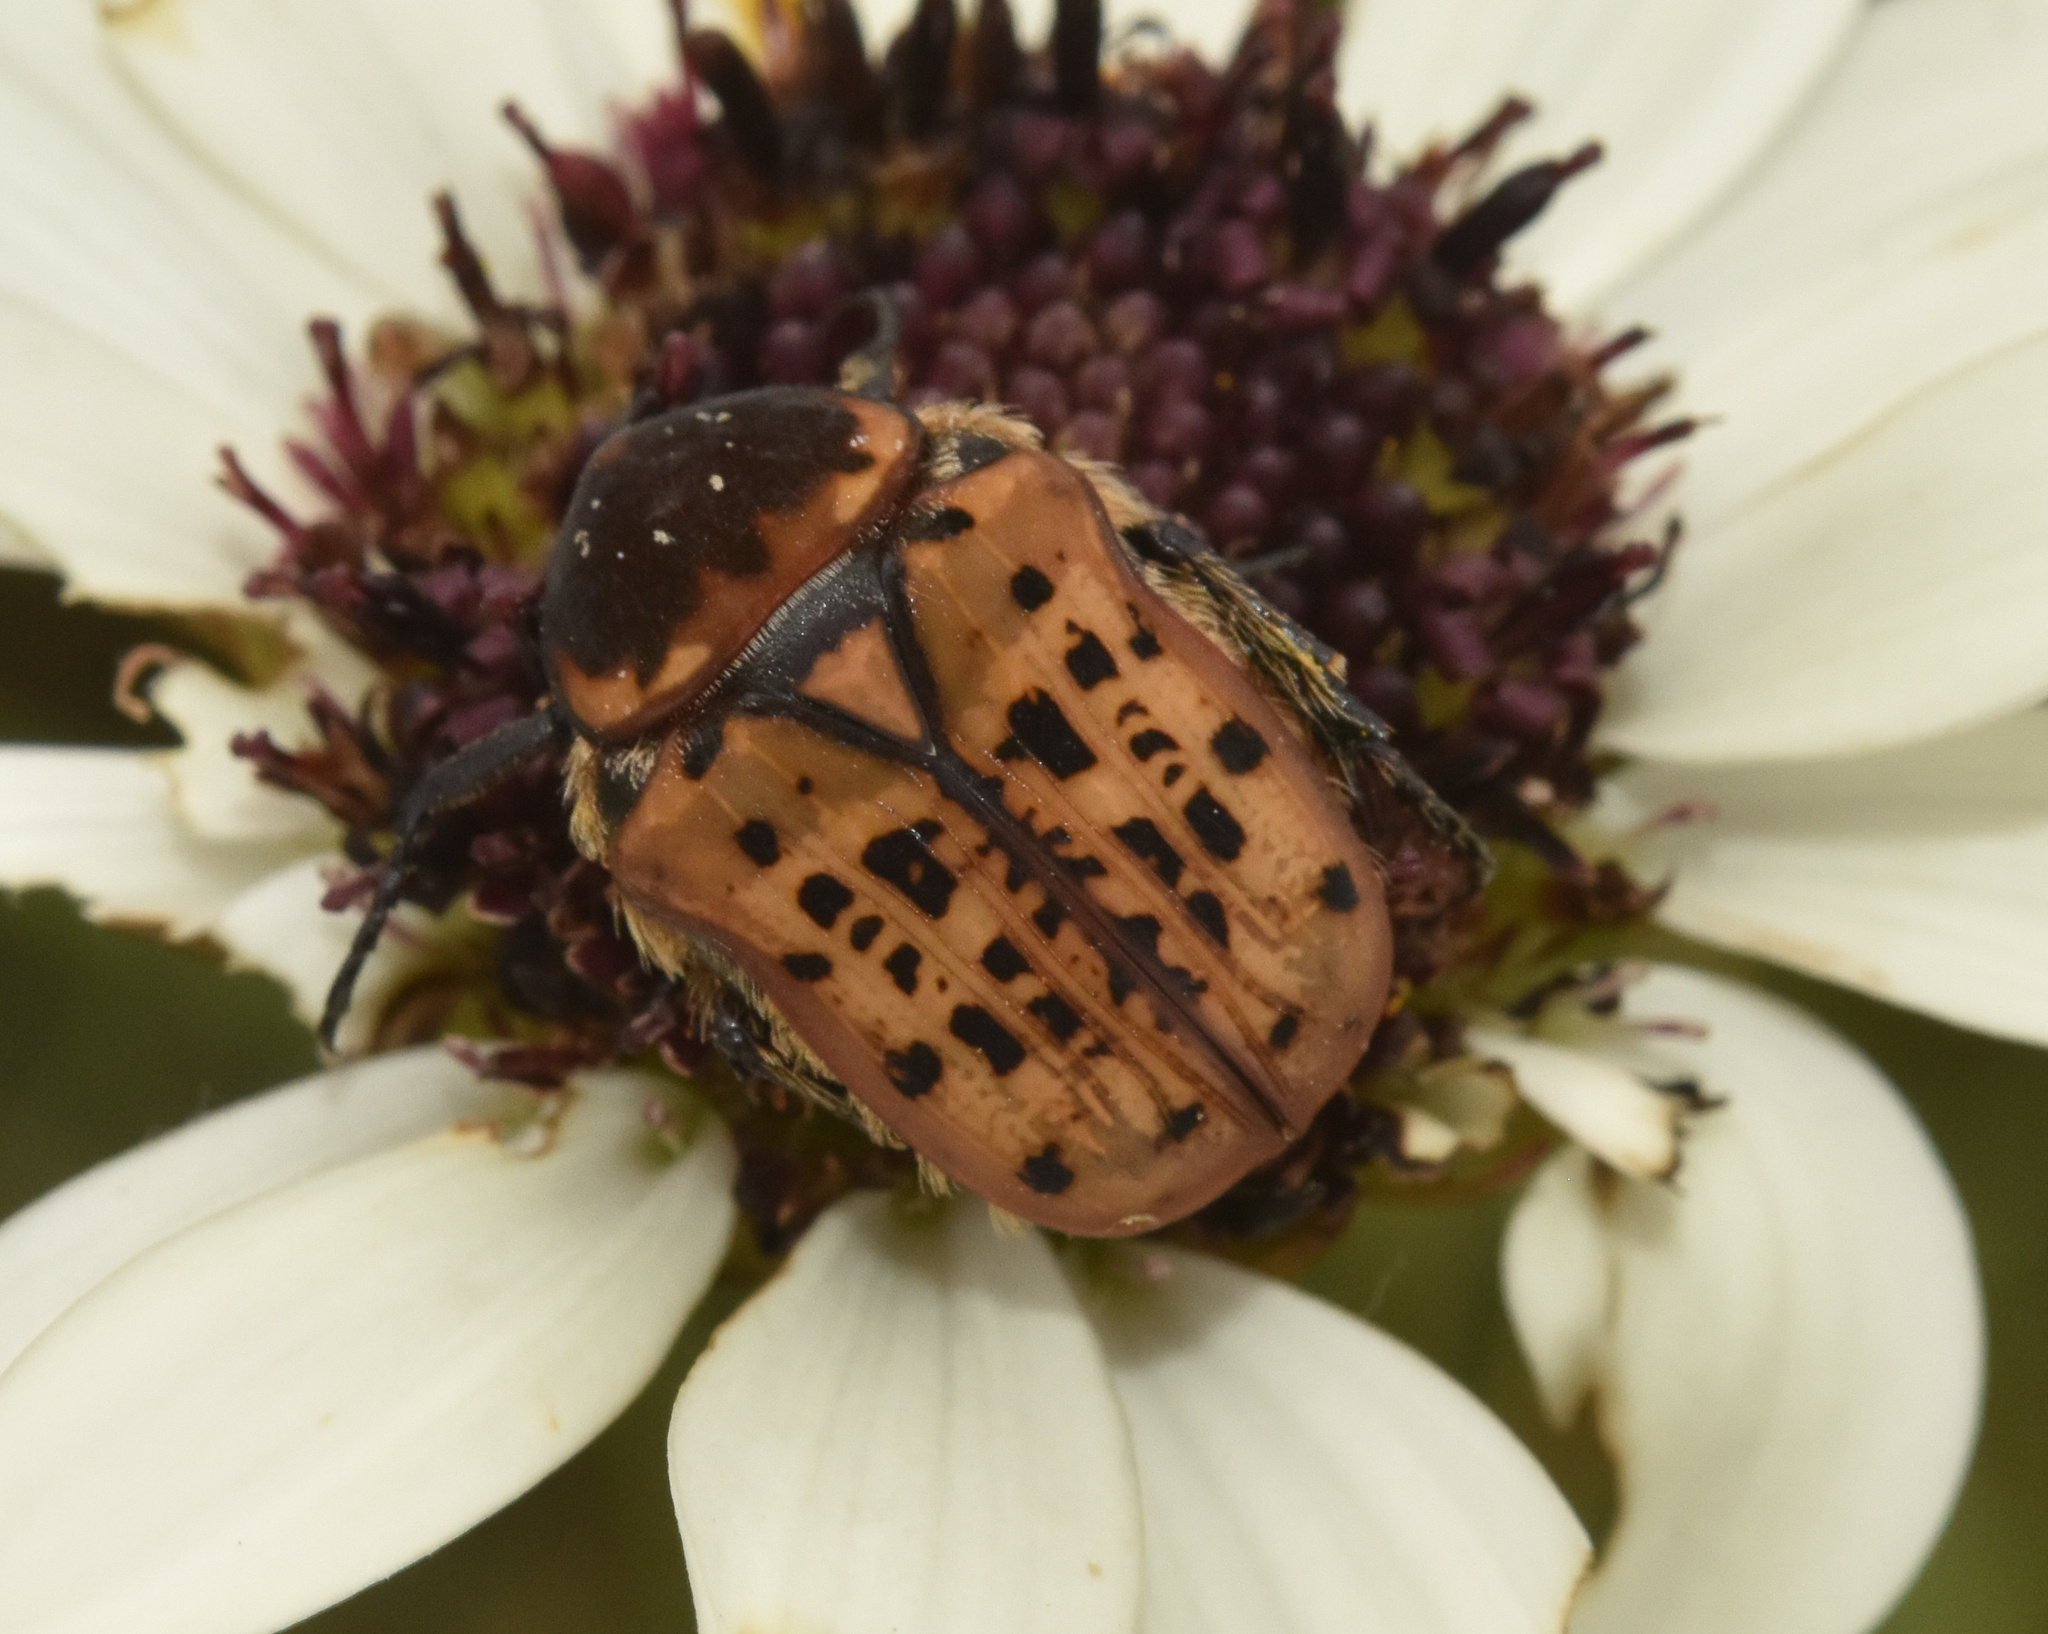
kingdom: Animalia
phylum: Arthropoda
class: Insecta
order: Coleoptera
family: Scarabaeidae
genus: Atrichelaphinis
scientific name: Atrichelaphinis tigrina
